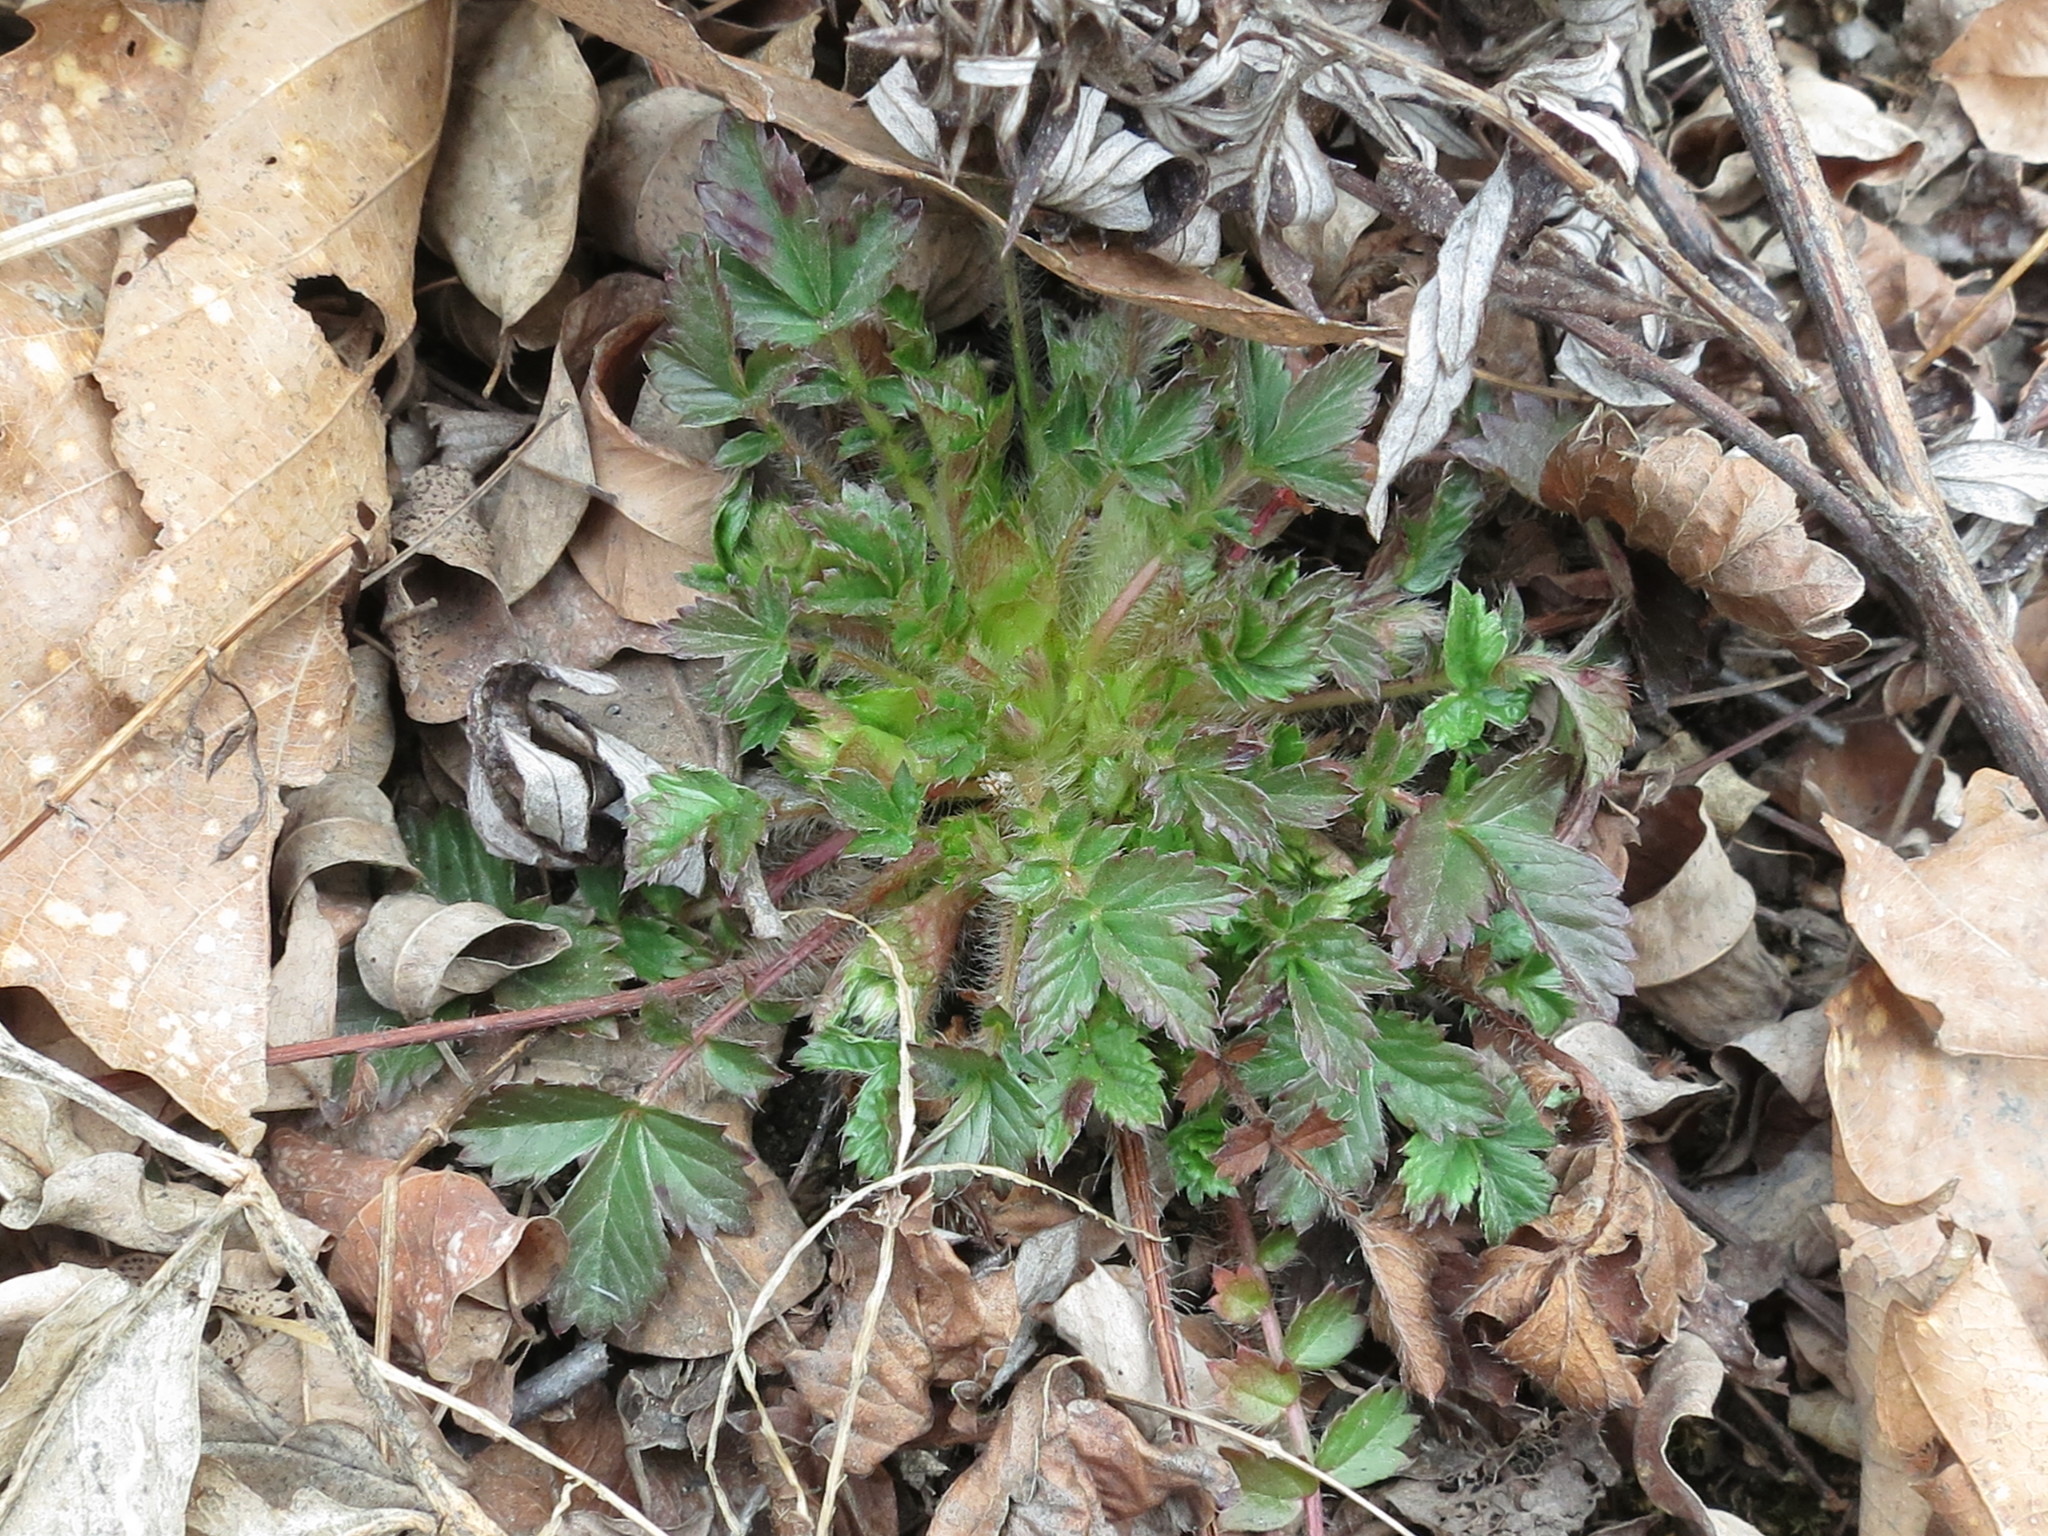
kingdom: Plantae
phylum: Tracheophyta
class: Magnoliopsida
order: Rosales
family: Rosaceae
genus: Potentilla
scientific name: Potentilla fragarioides
